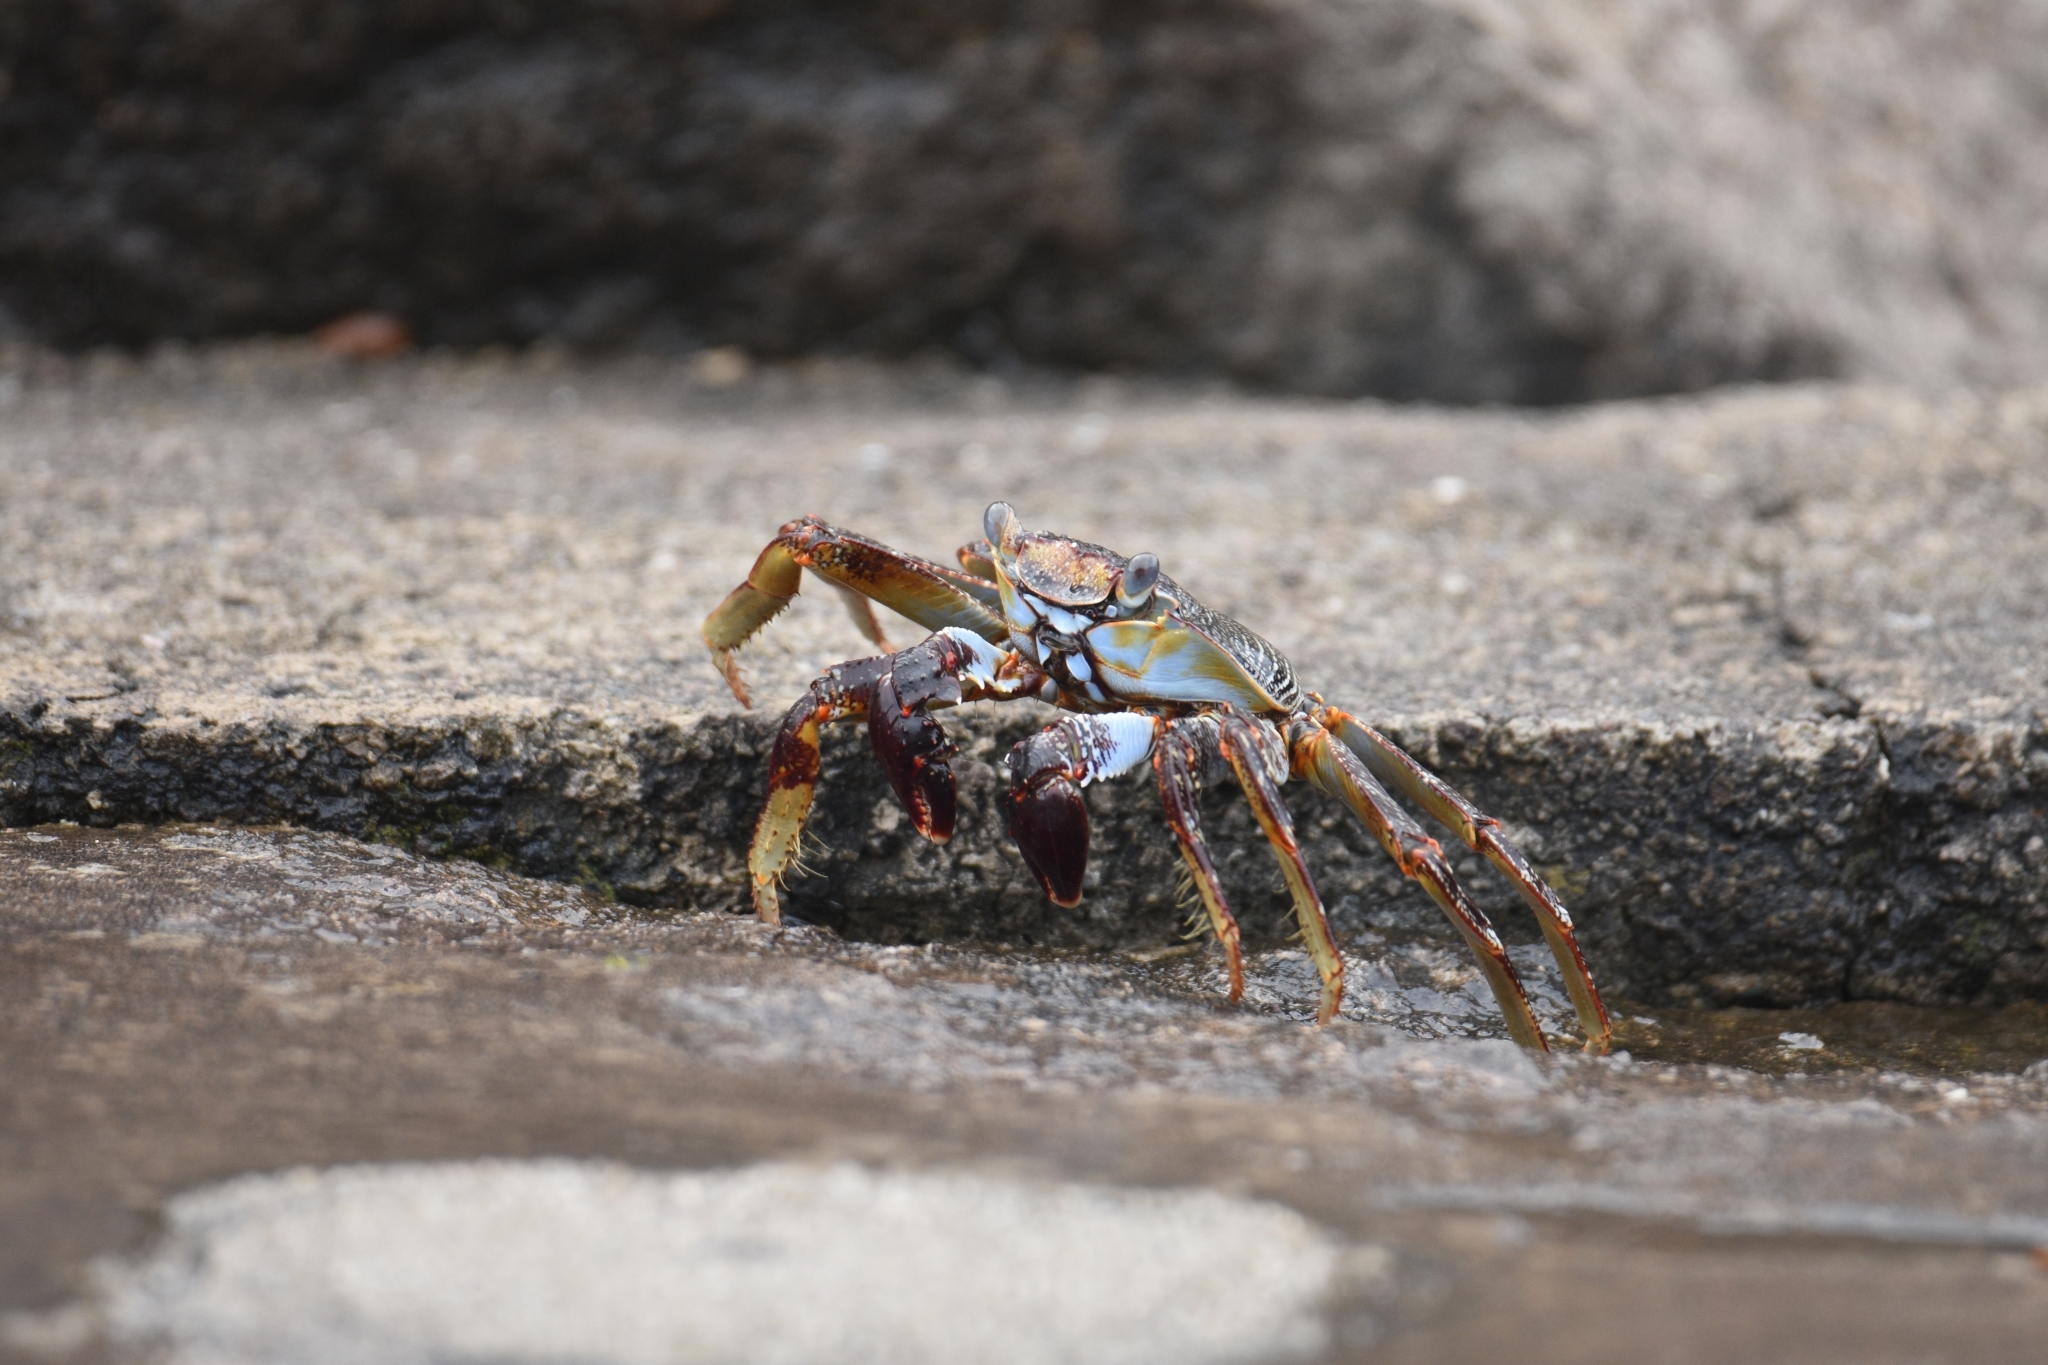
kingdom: Animalia
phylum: Arthropoda
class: Malacostraca
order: Decapoda
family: Grapsidae
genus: Grapsus
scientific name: Grapsus grapsus
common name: Sally lightfoot
